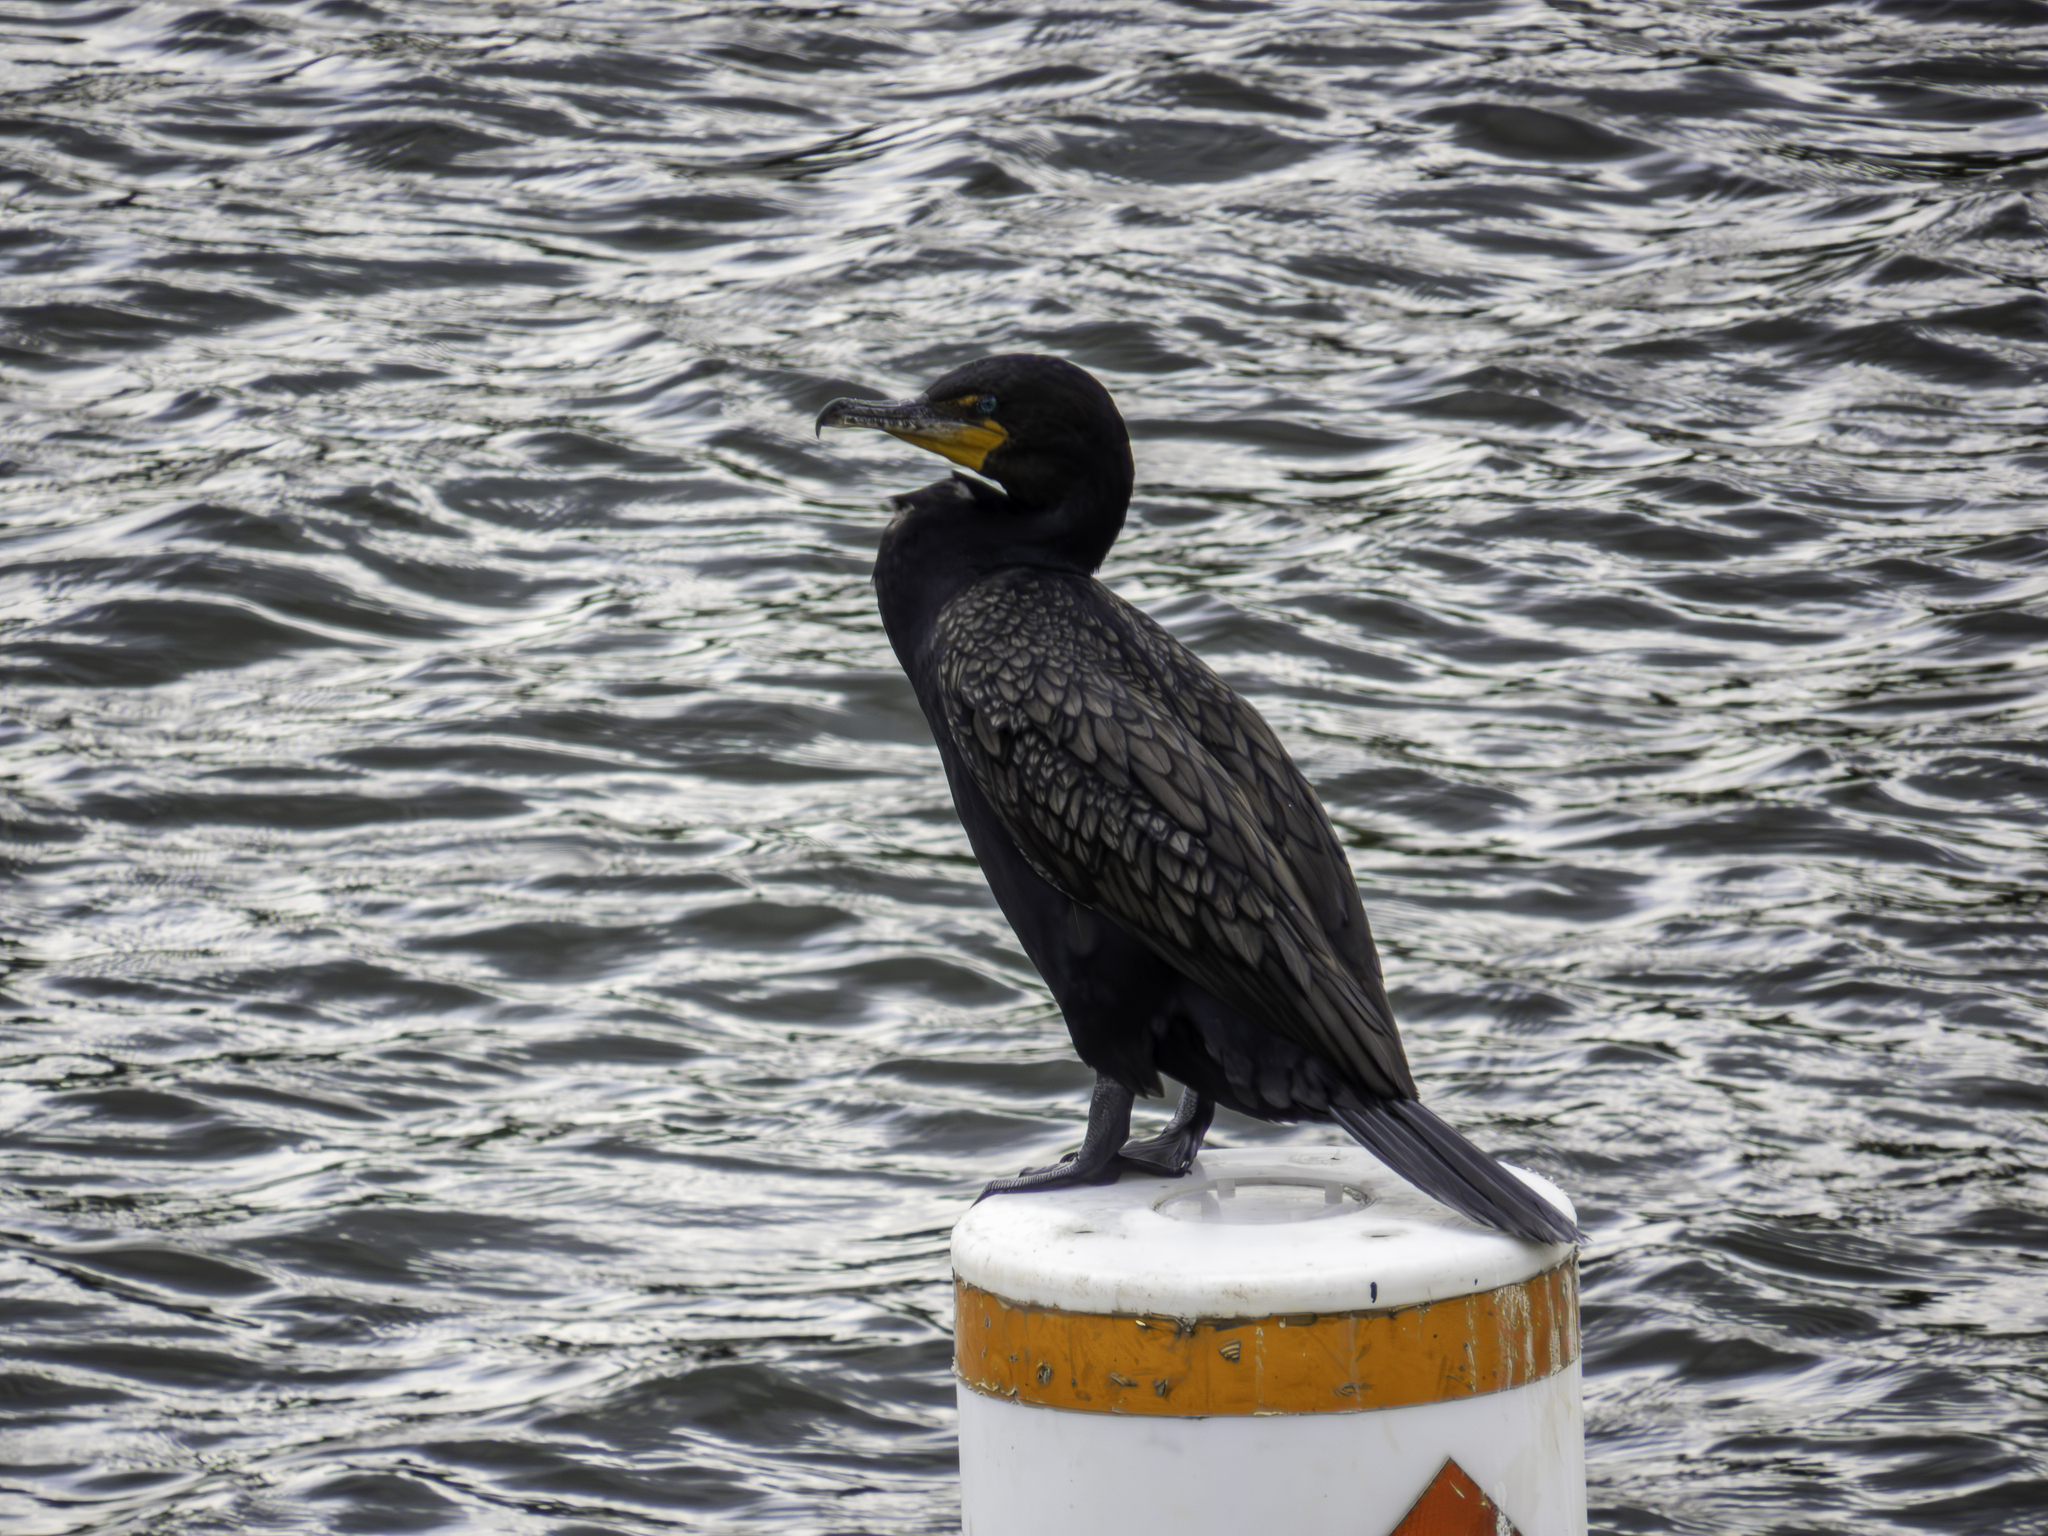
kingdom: Animalia
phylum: Chordata
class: Aves
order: Suliformes
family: Phalacrocoracidae
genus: Phalacrocorax
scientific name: Phalacrocorax auritus
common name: Double-crested cormorant
